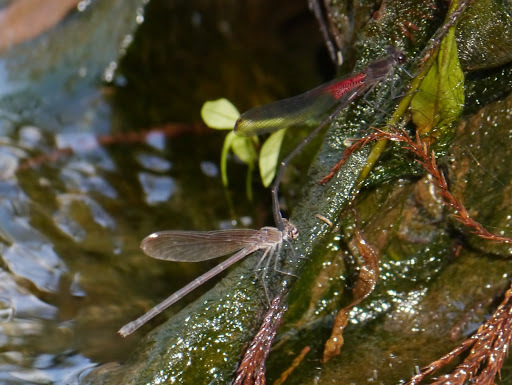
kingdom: Animalia
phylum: Arthropoda
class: Insecta
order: Odonata
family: Calopterygidae
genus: Hetaerina
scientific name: Hetaerina titia
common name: Smoky rubyspot
